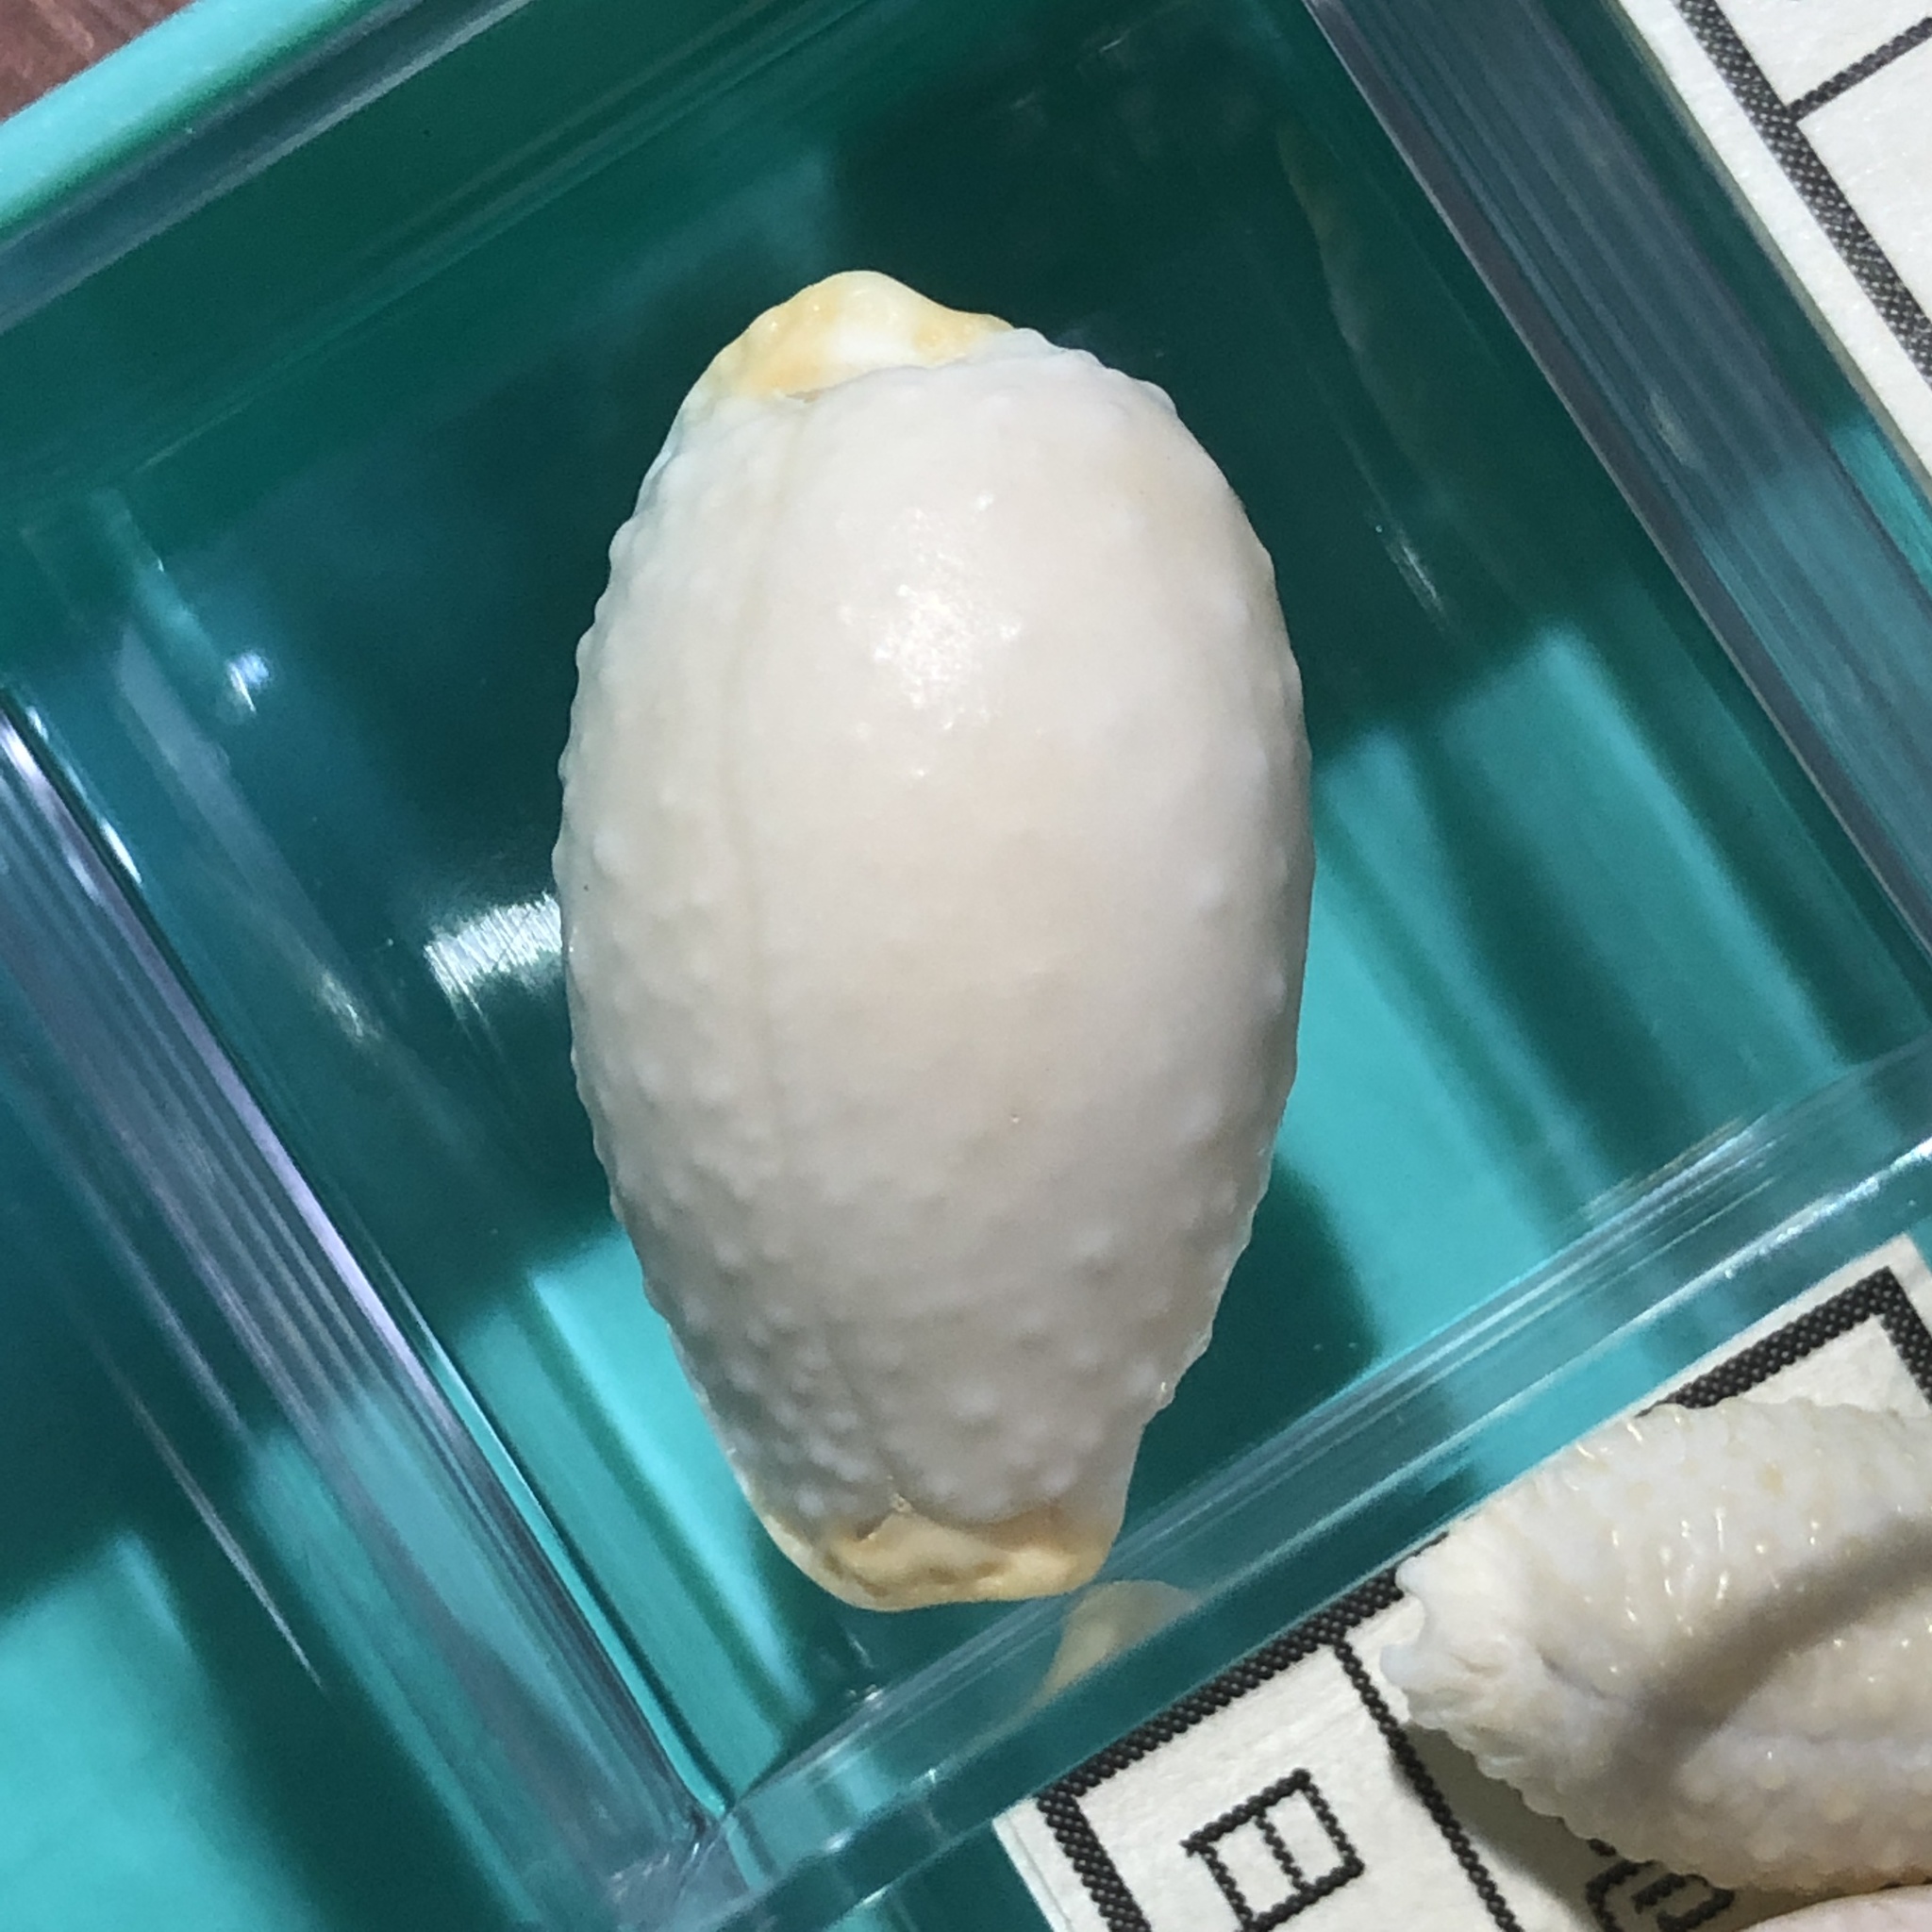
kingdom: Animalia
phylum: Mollusca
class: Gastropoda
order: Littorinimorpha
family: Cypraeidae
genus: Staphylaea
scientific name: Staphylaea limacina
